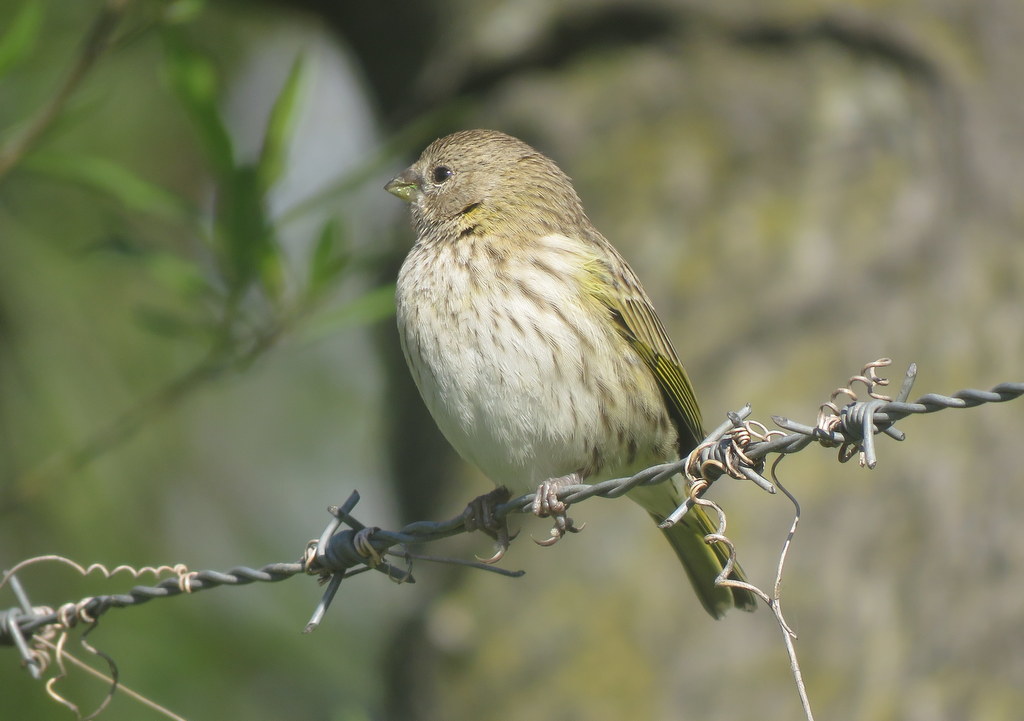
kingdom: Animalia
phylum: Chordata
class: Aves
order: Passeriformes
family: Thraupidae
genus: Sicalis
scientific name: Sicalis flaveola
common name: Saffron finch
